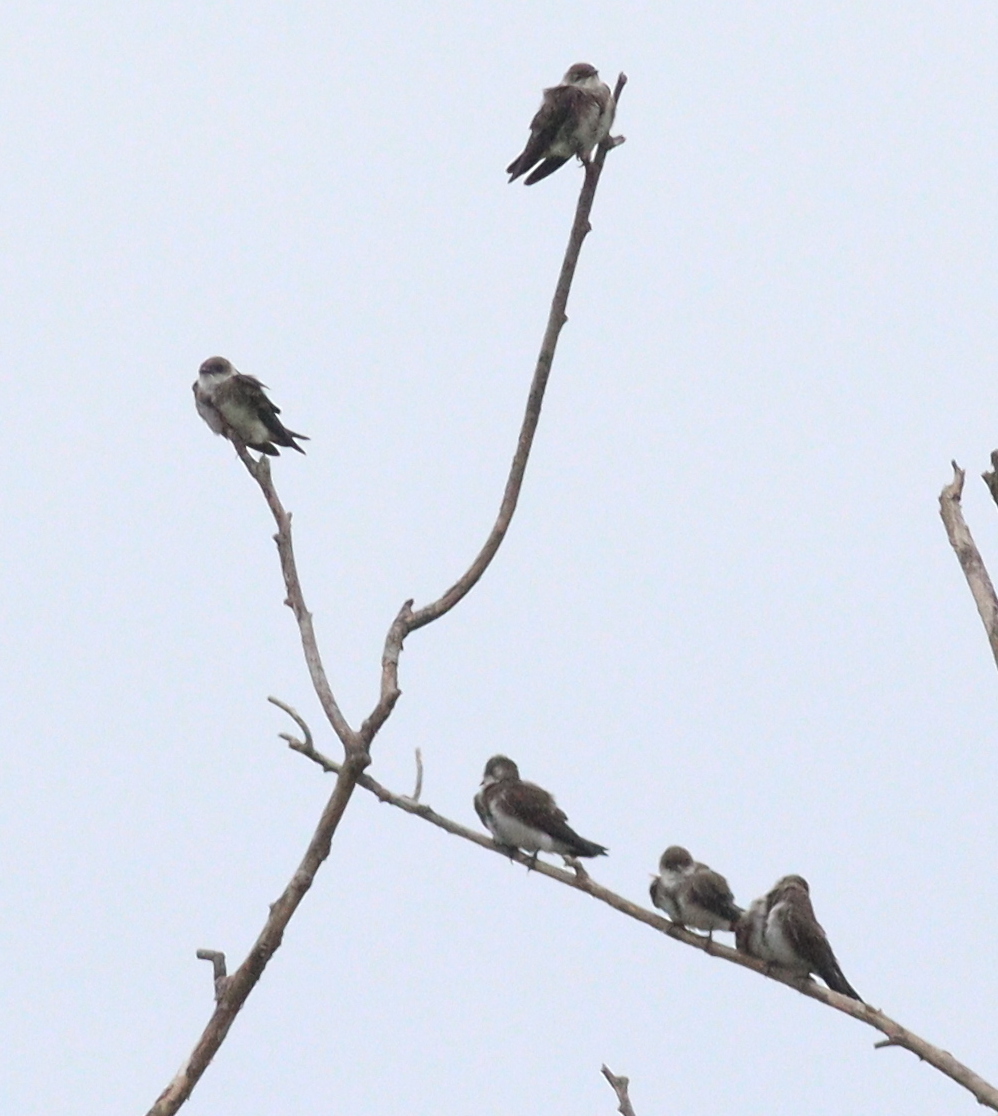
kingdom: Animalia
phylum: Chordata
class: Aves
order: Passeriformes
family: Hirundinidae
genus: Progne
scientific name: Progne tapera
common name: Brown-chested martin
